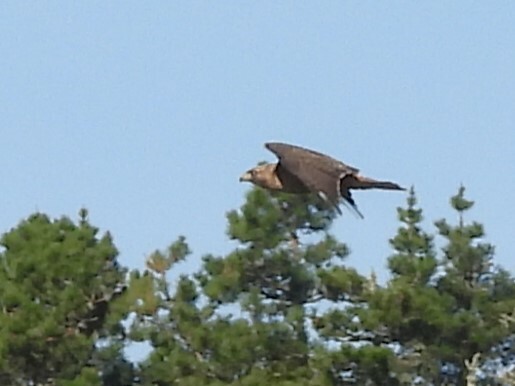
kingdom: Animalia
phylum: Chordata
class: Aves
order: Accipitriformes
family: Accipitridae
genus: Buteo
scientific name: Buteo jamaicensis
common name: Red-tailed hawk
